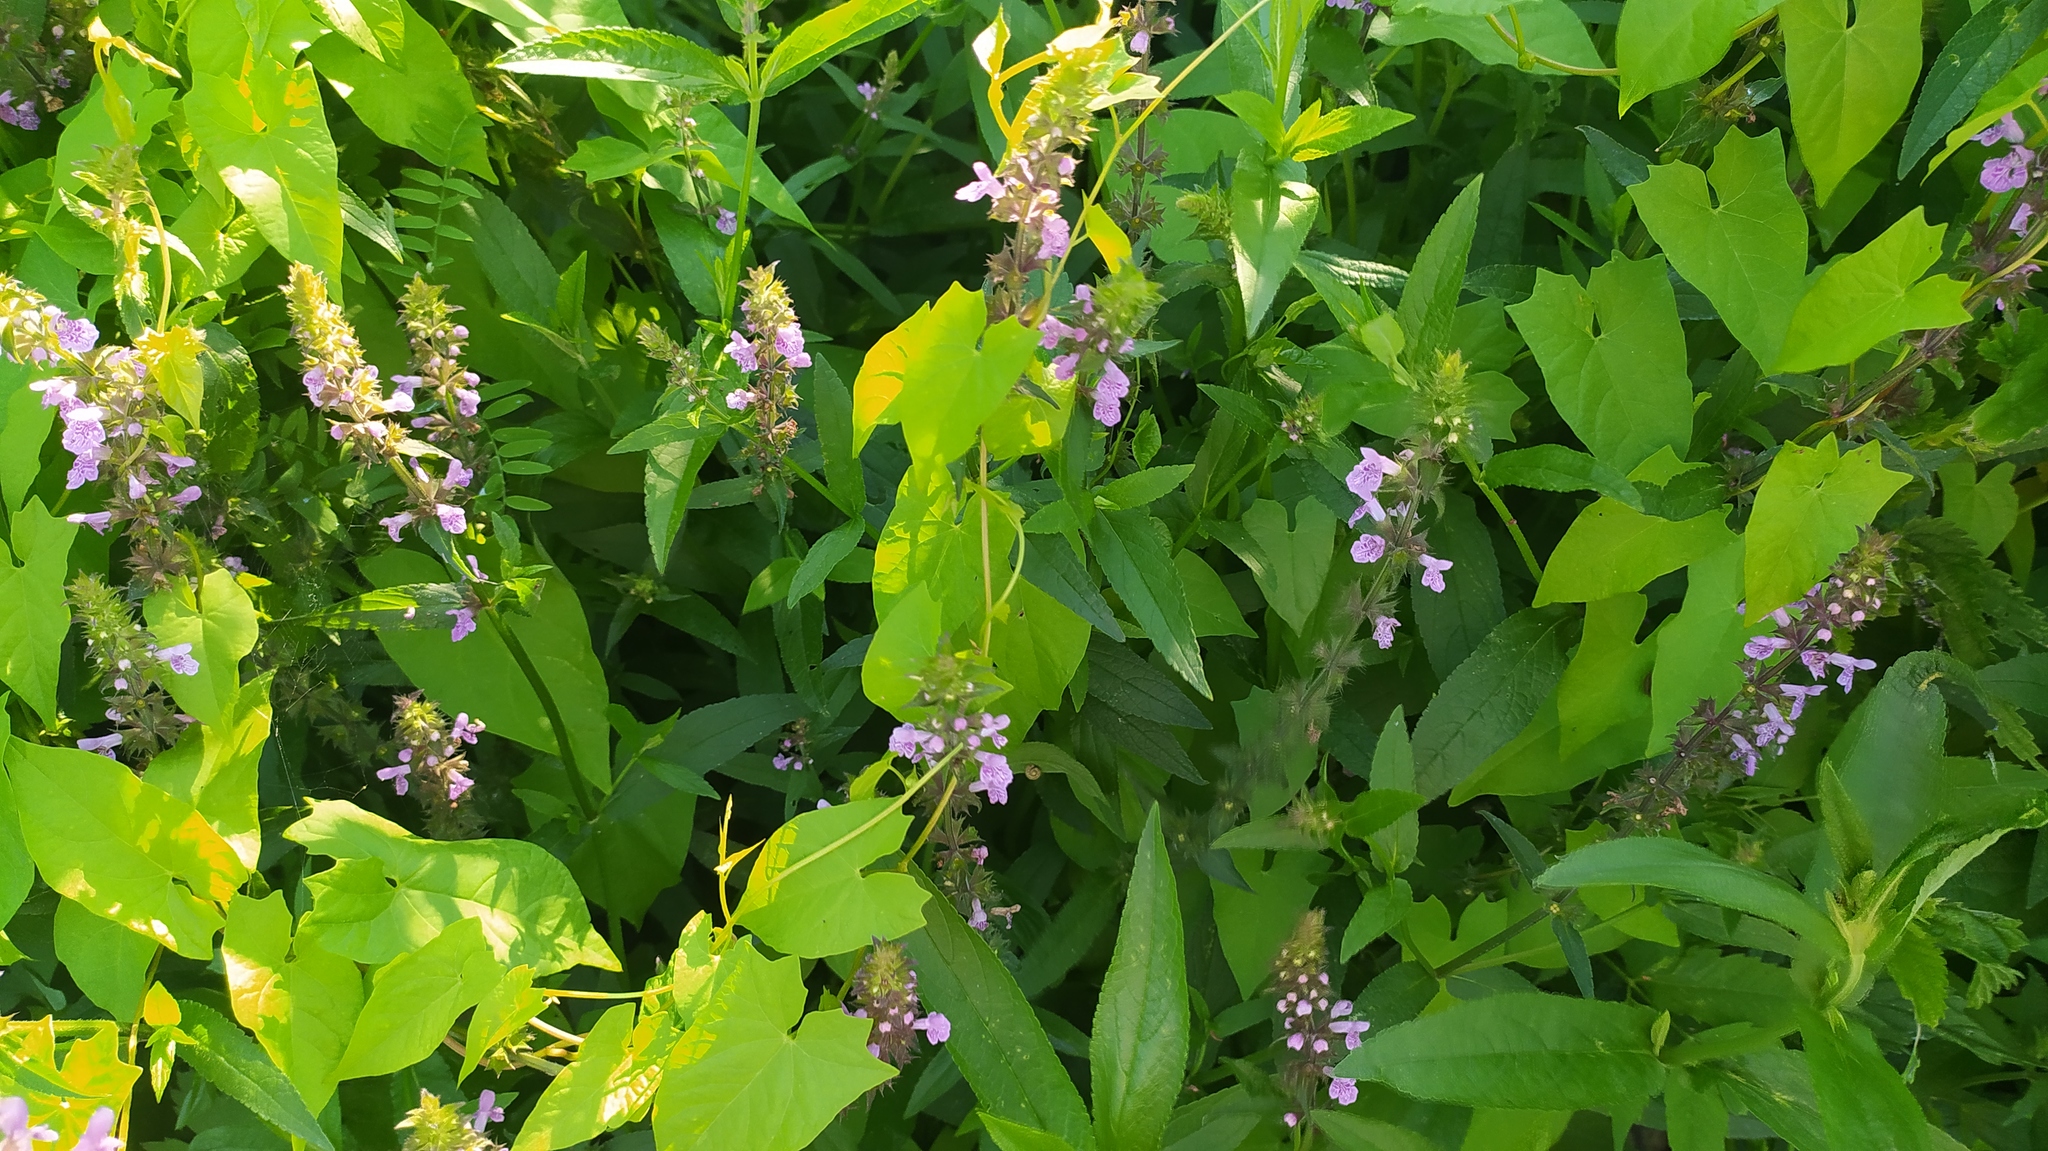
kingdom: Plantae
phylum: Tracheophyta
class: Magnoliopsida
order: Lamiales
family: Lamiaceae
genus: Stachys
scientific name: Stachys palustris
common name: Marsh woundwort
